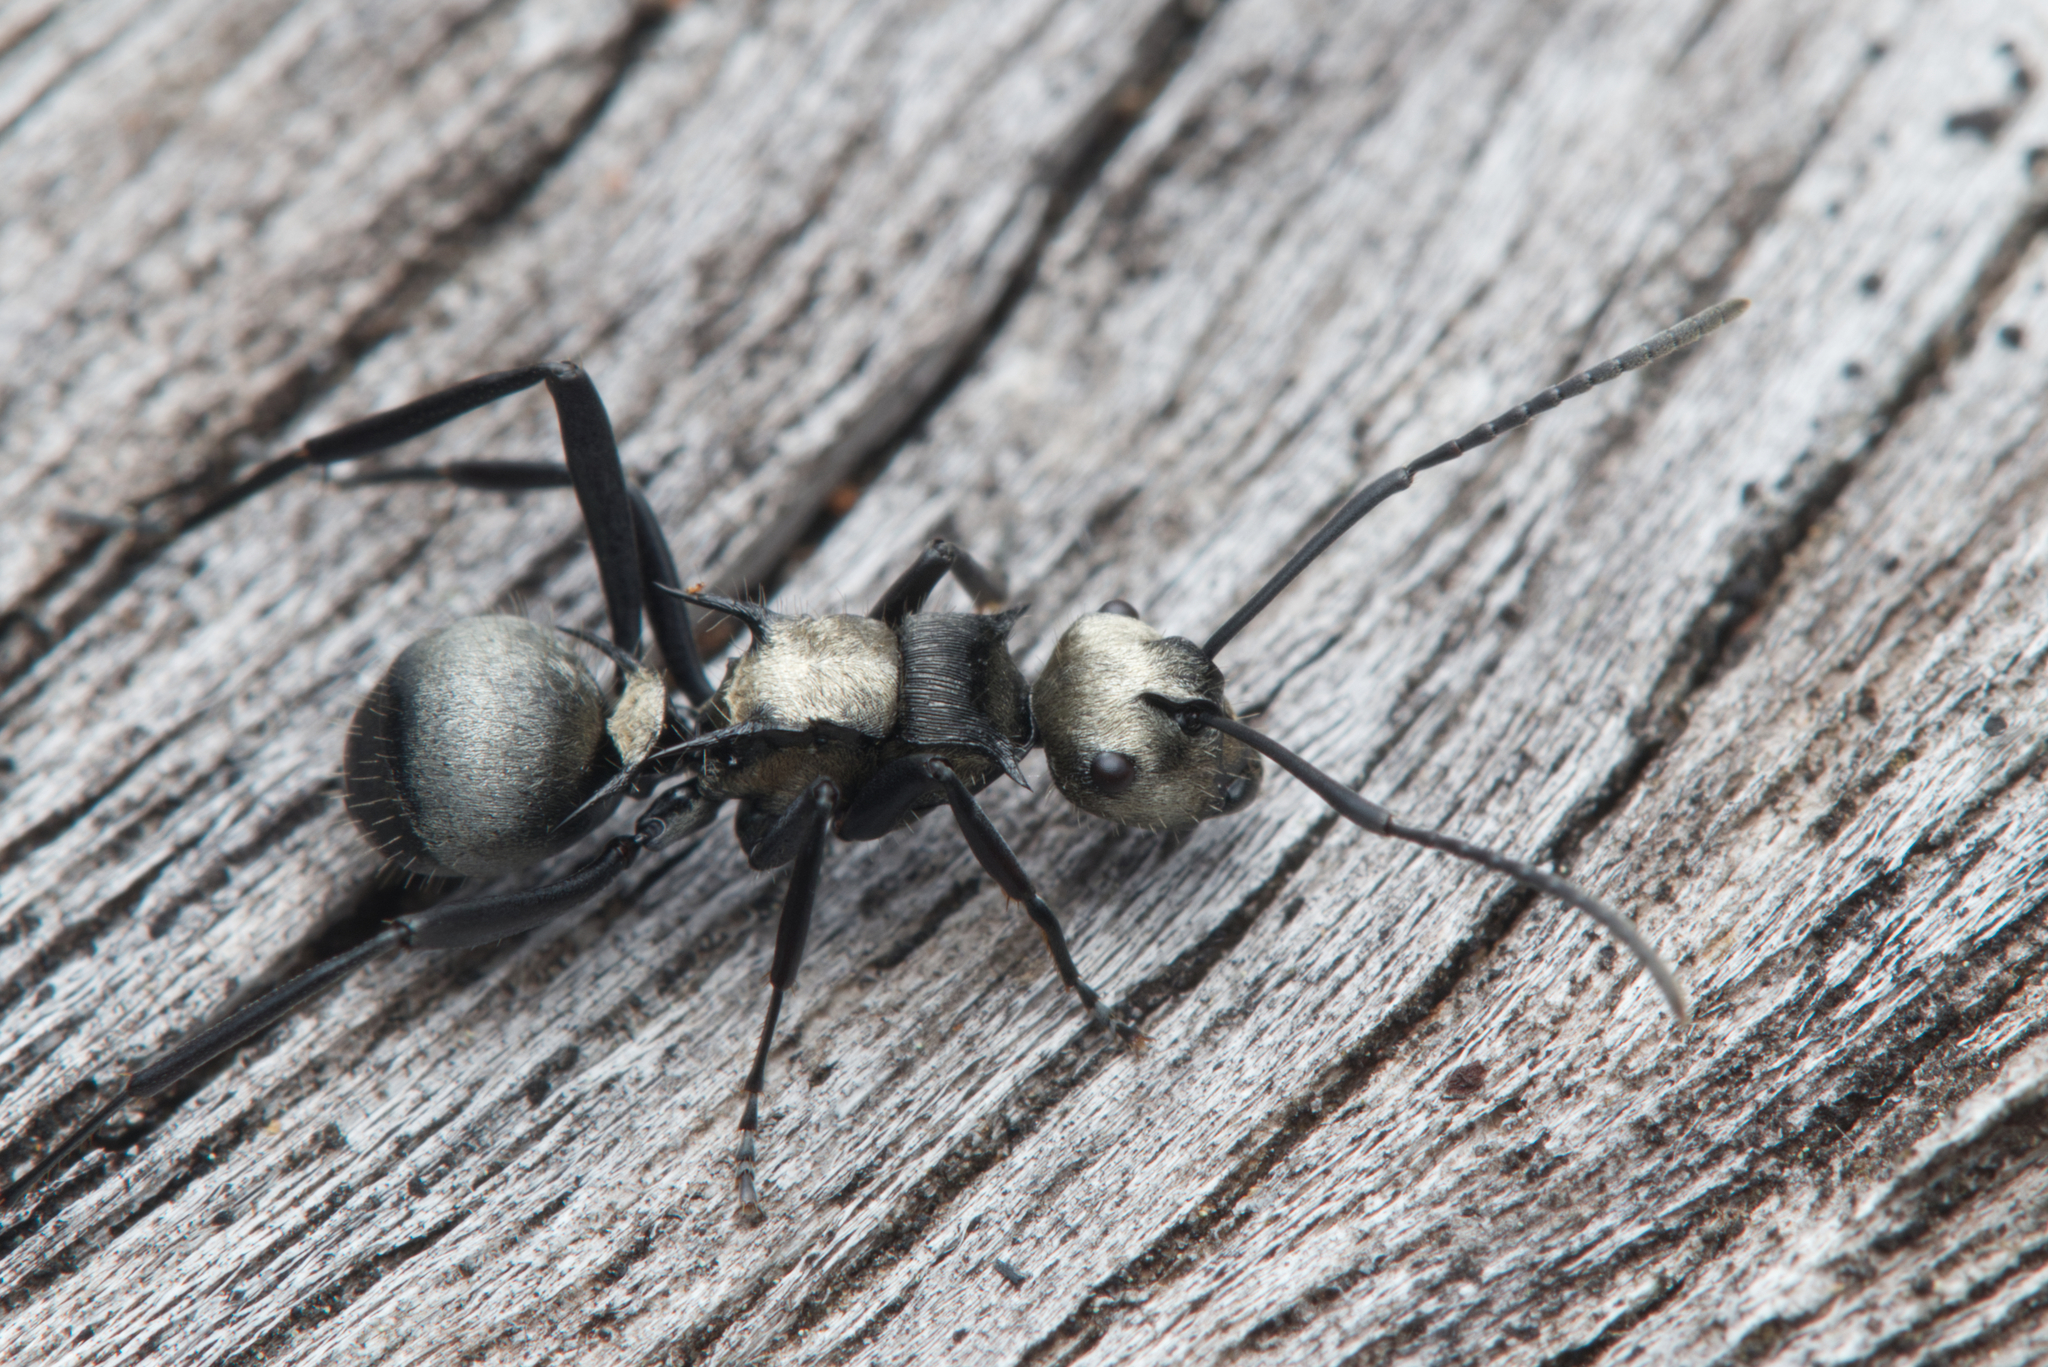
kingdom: Animalia
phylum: Arthropoda
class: Insecta
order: Hymenoptera
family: Formicidae
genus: Polyrhachis
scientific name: Polyrhachis daemeli
